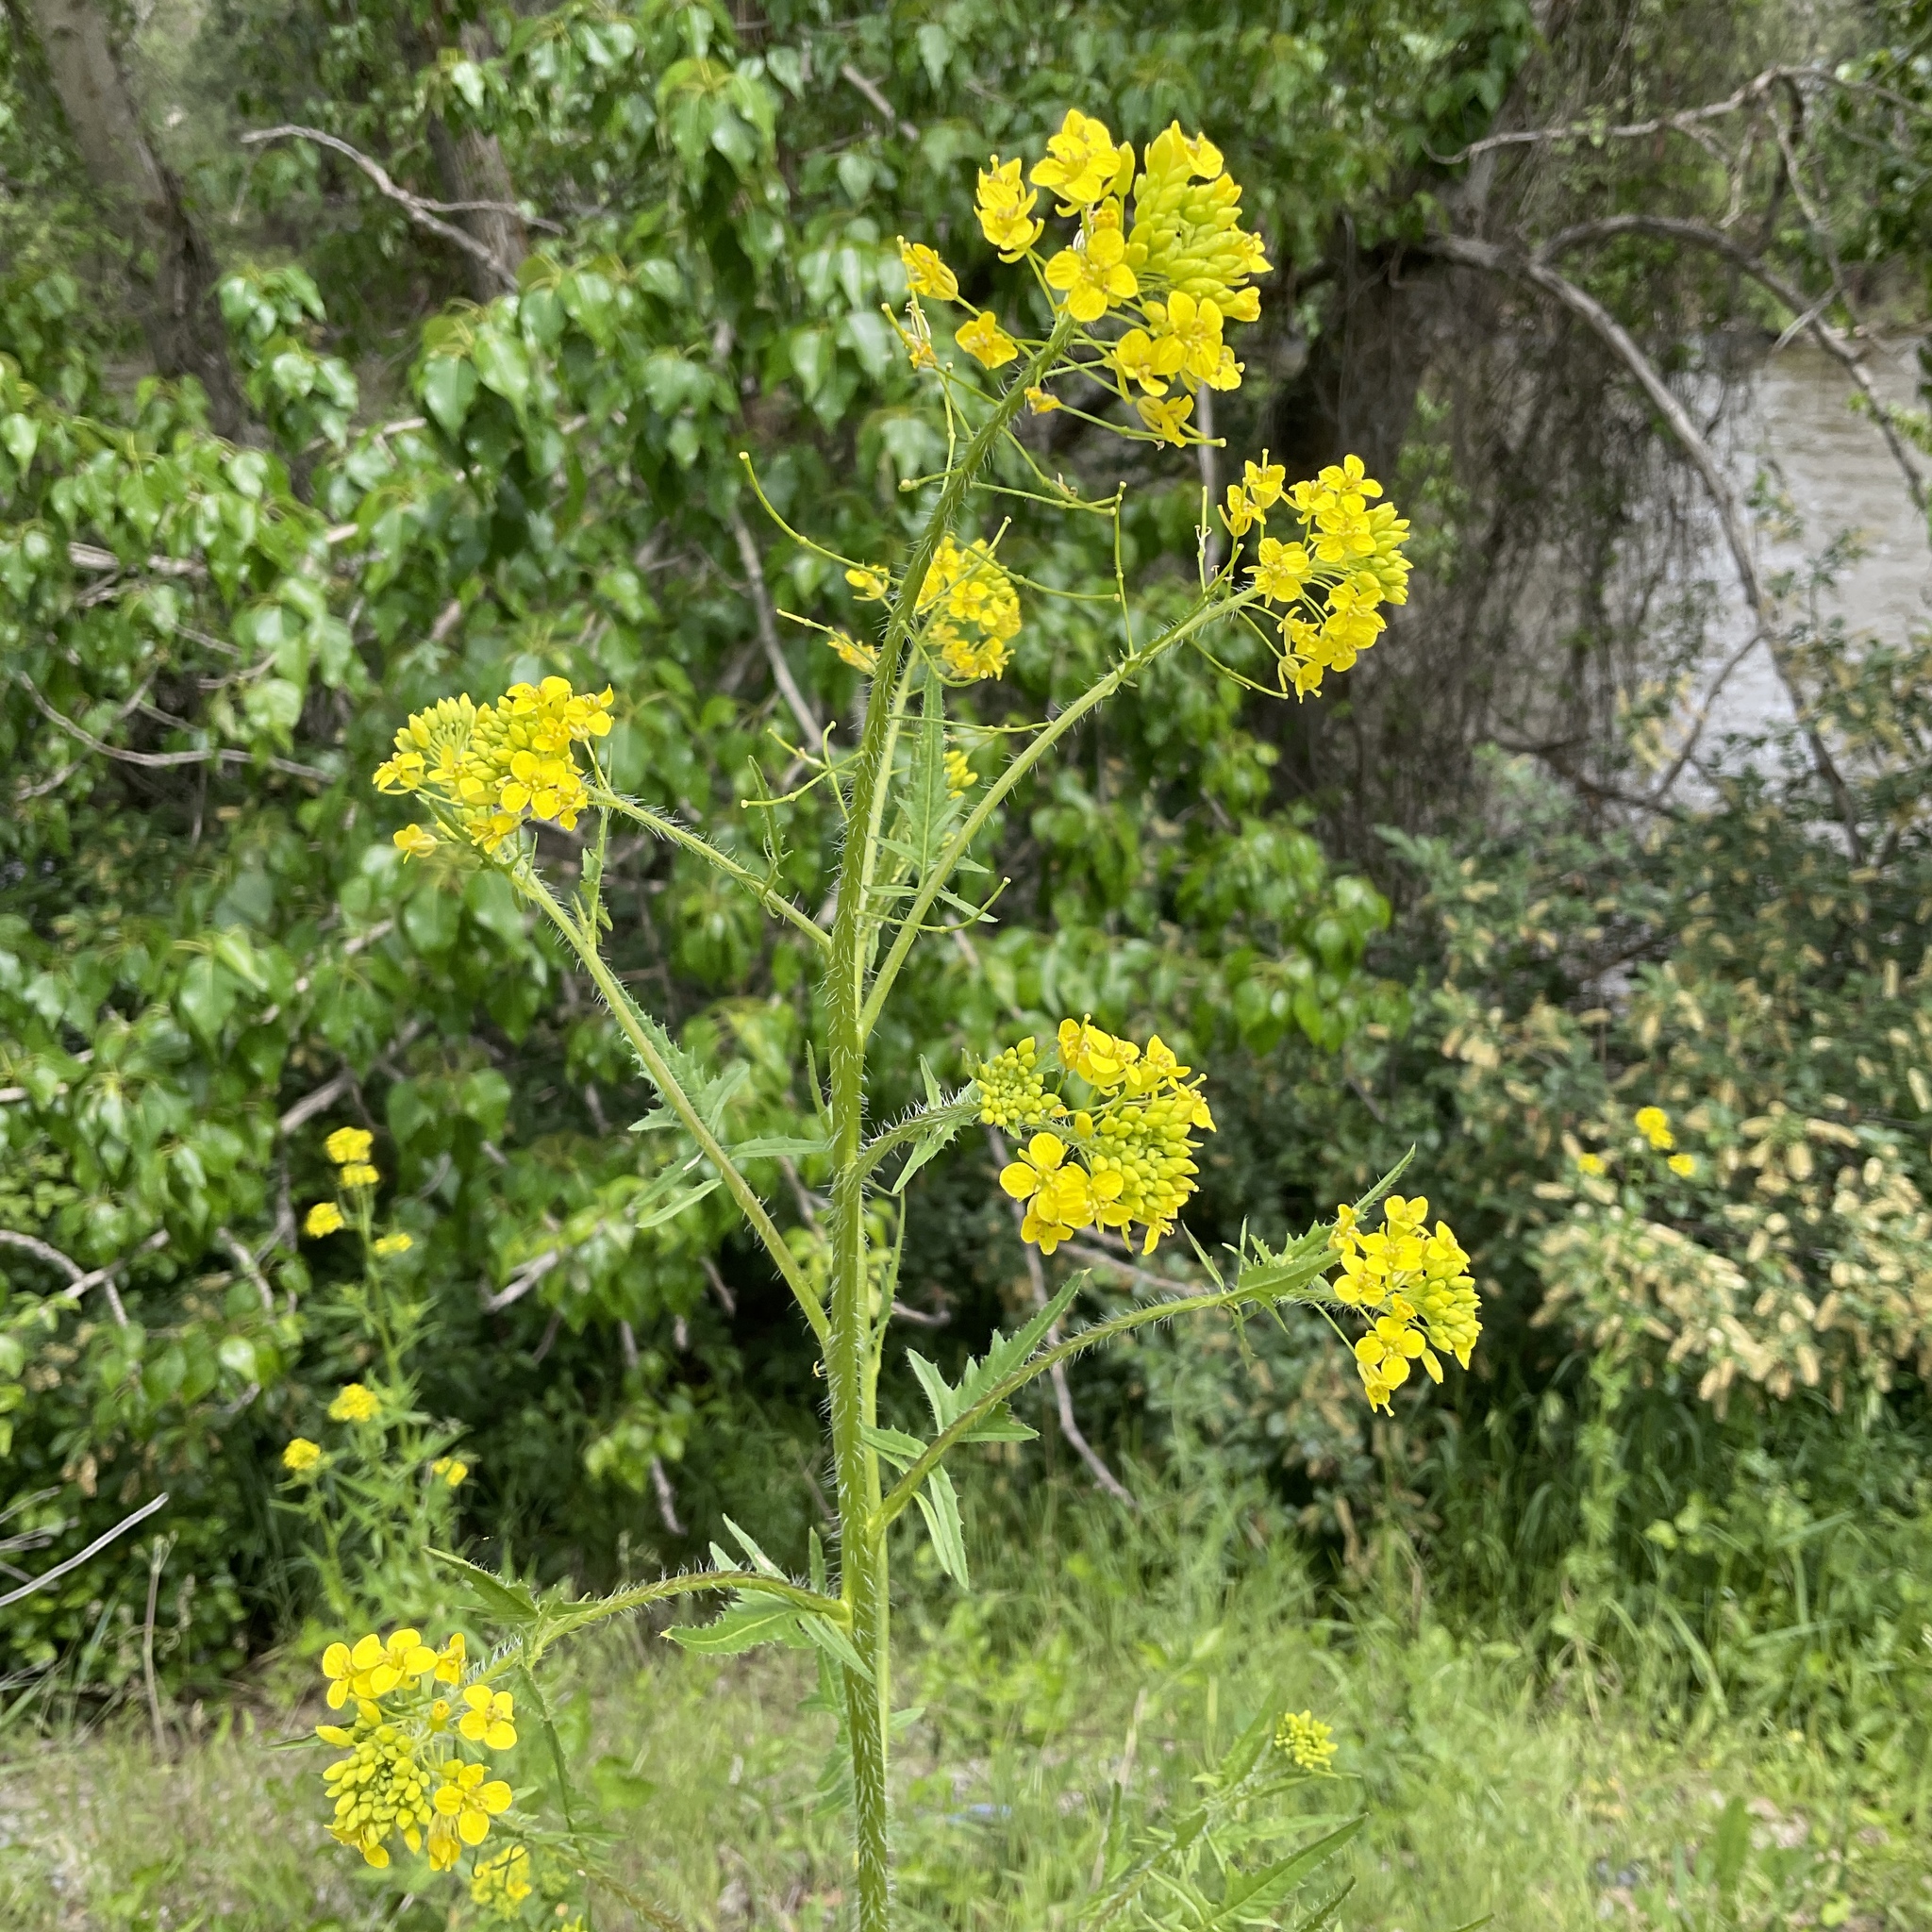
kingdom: Plantae
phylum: Tracheophyta
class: Magnoliopsida
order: Brassicales
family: Brassicaceae
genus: Sisymbrium
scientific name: Sisymbrium loeselii
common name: False london-rocket
